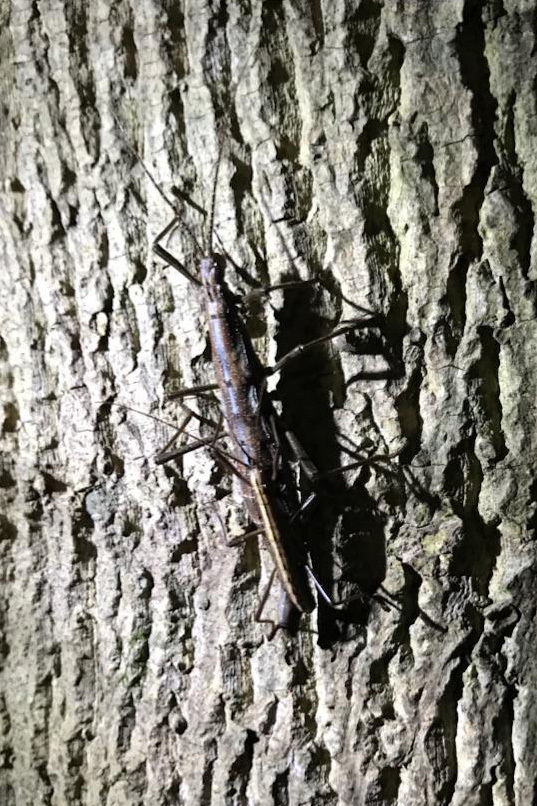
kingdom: Animalia
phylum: Arthropoda
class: Insecta
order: Phasmida
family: Pseudophasmatidae
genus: Anisomorpha
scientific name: Anisomorpha ferruginea
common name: Dark walkingstick
